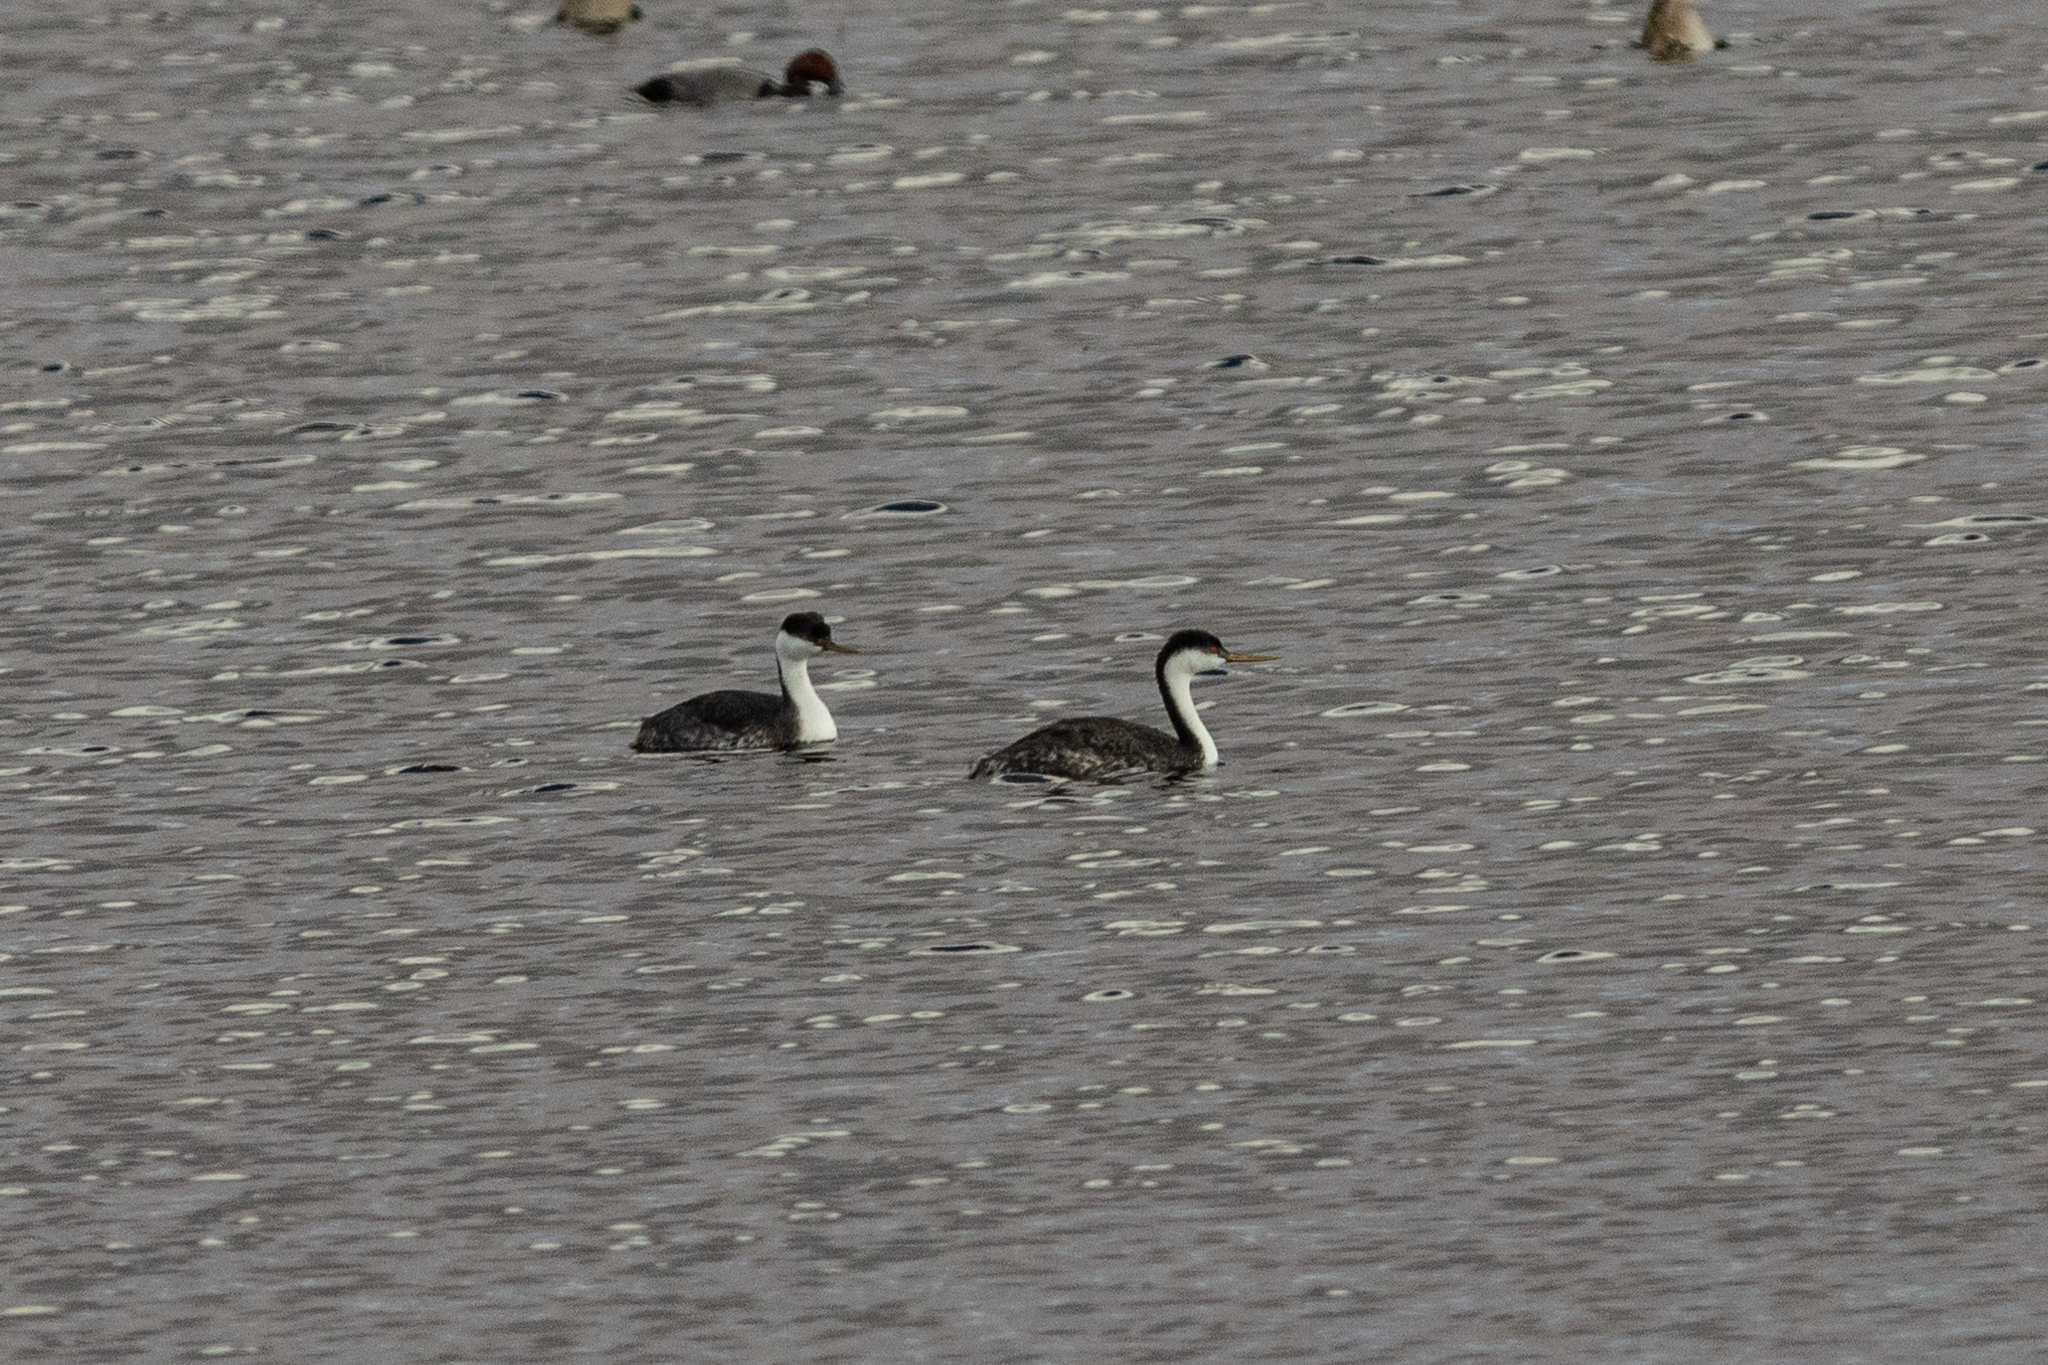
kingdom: Animalia
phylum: Chordata
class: Aves
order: Podicipediformes
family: Podicipedidae
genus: Aechmophorus
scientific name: Aechmophorus occidentalis
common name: Western grebe
